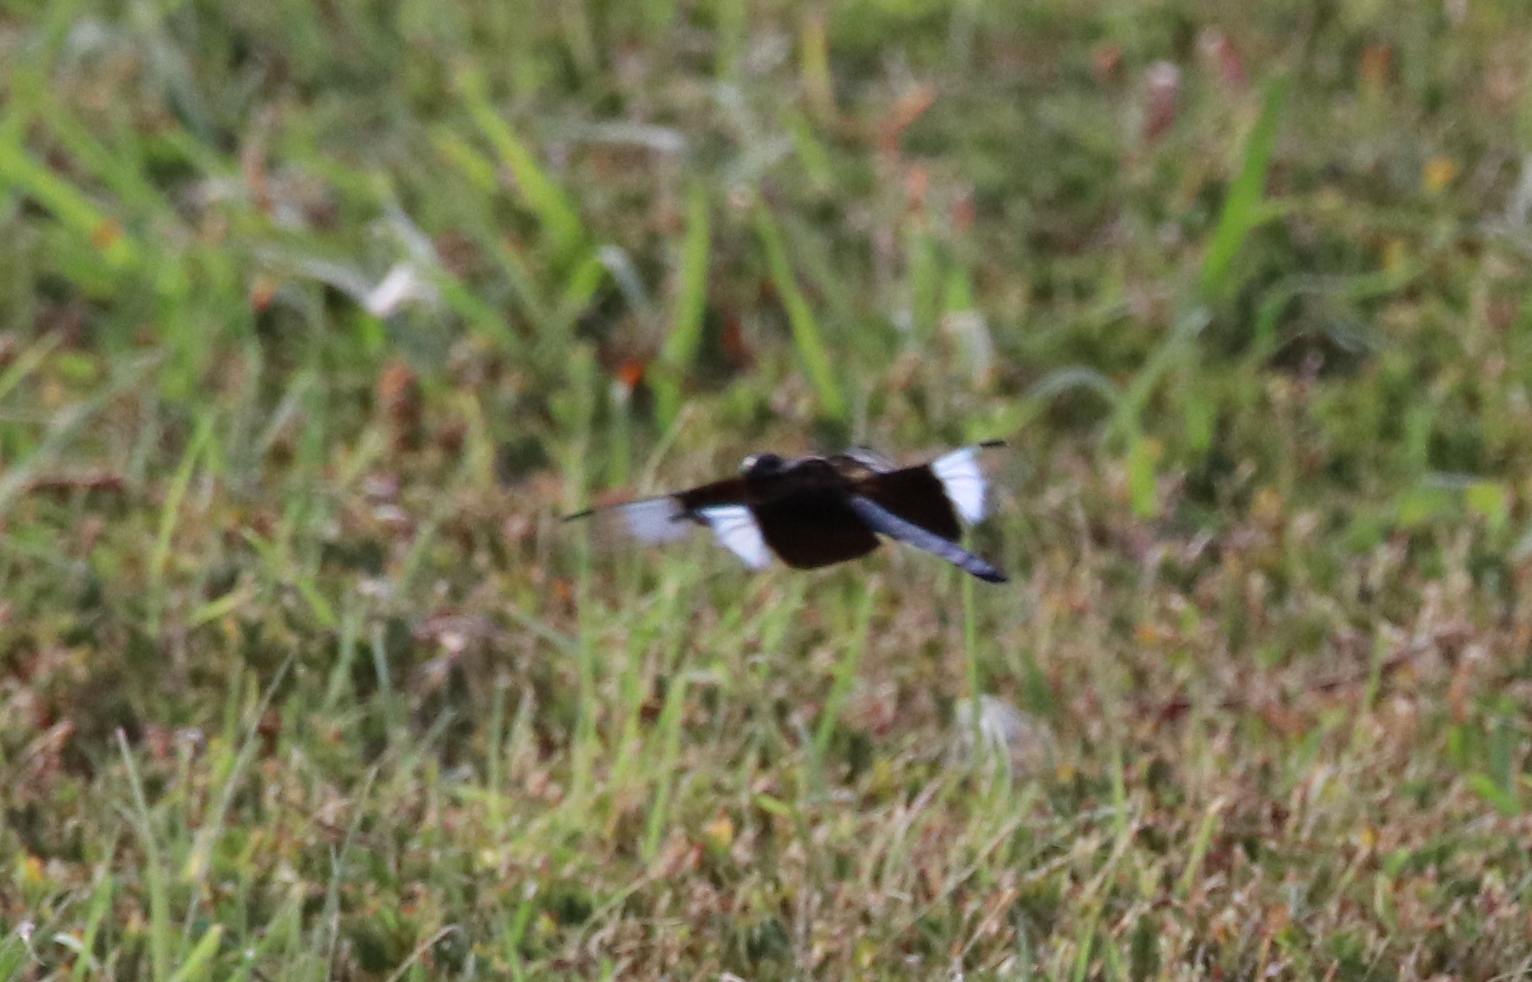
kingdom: Animalia
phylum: Arthropoda
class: Insecta
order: Odonata
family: Libellulidae
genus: Libellula
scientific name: Libellula luctuosa
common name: Widow skimmer
